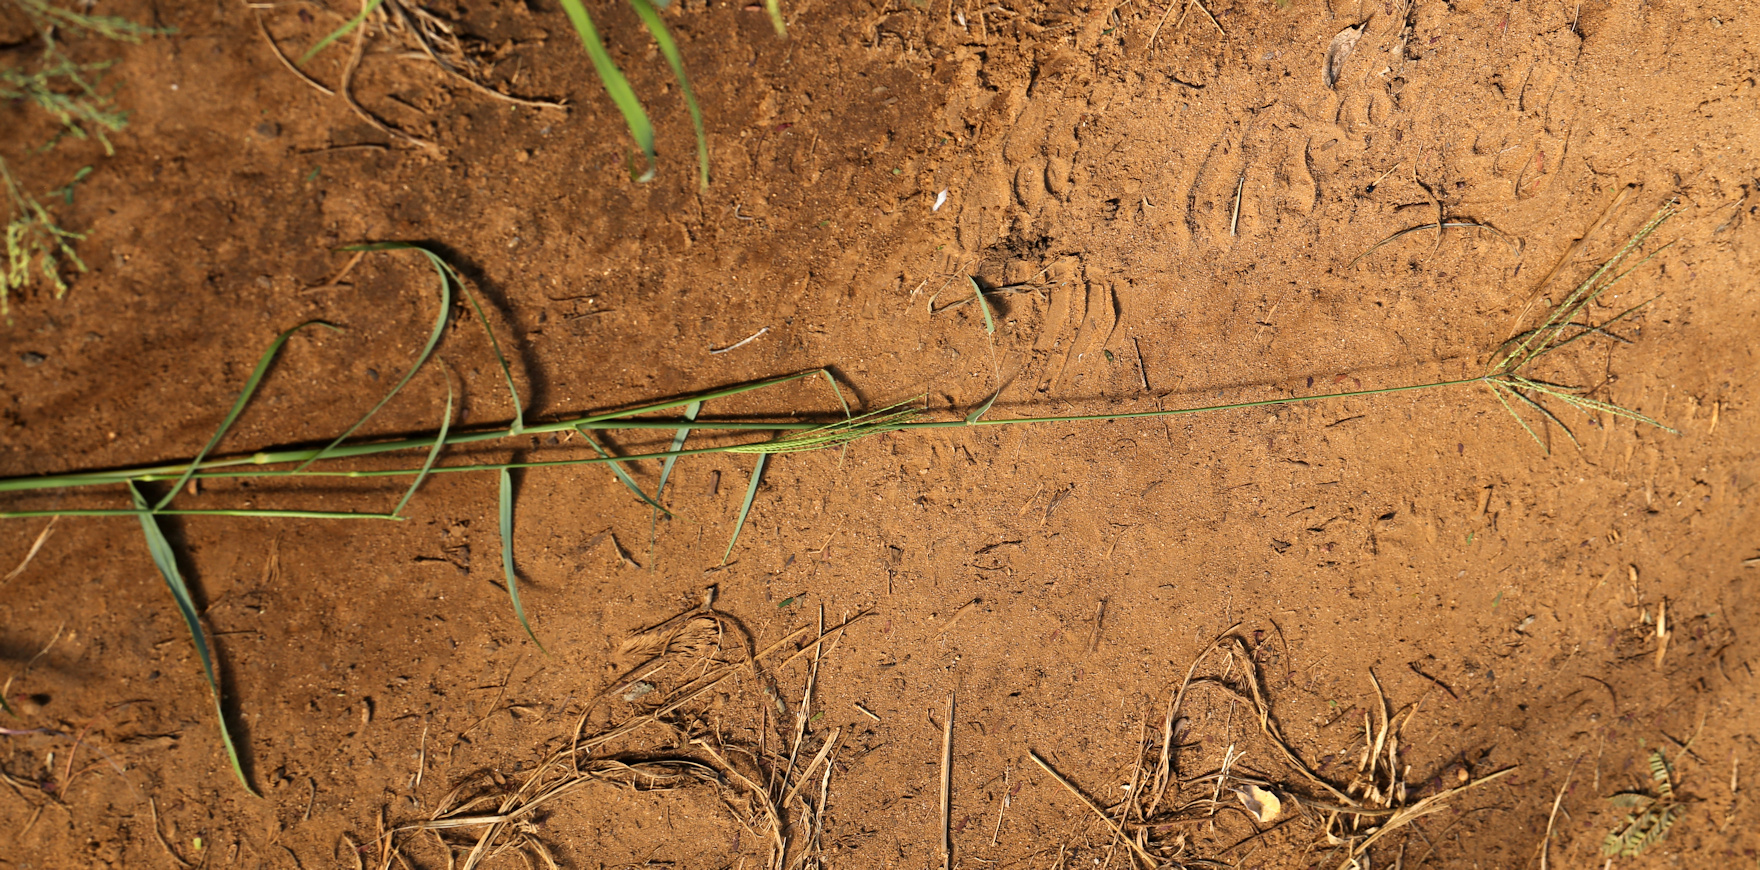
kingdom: Plantae
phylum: Tracheophyta
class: Liliopsida
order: Poales
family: Poaceae
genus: Digitaria
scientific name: Digitaria eriantha
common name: Digitgrass
